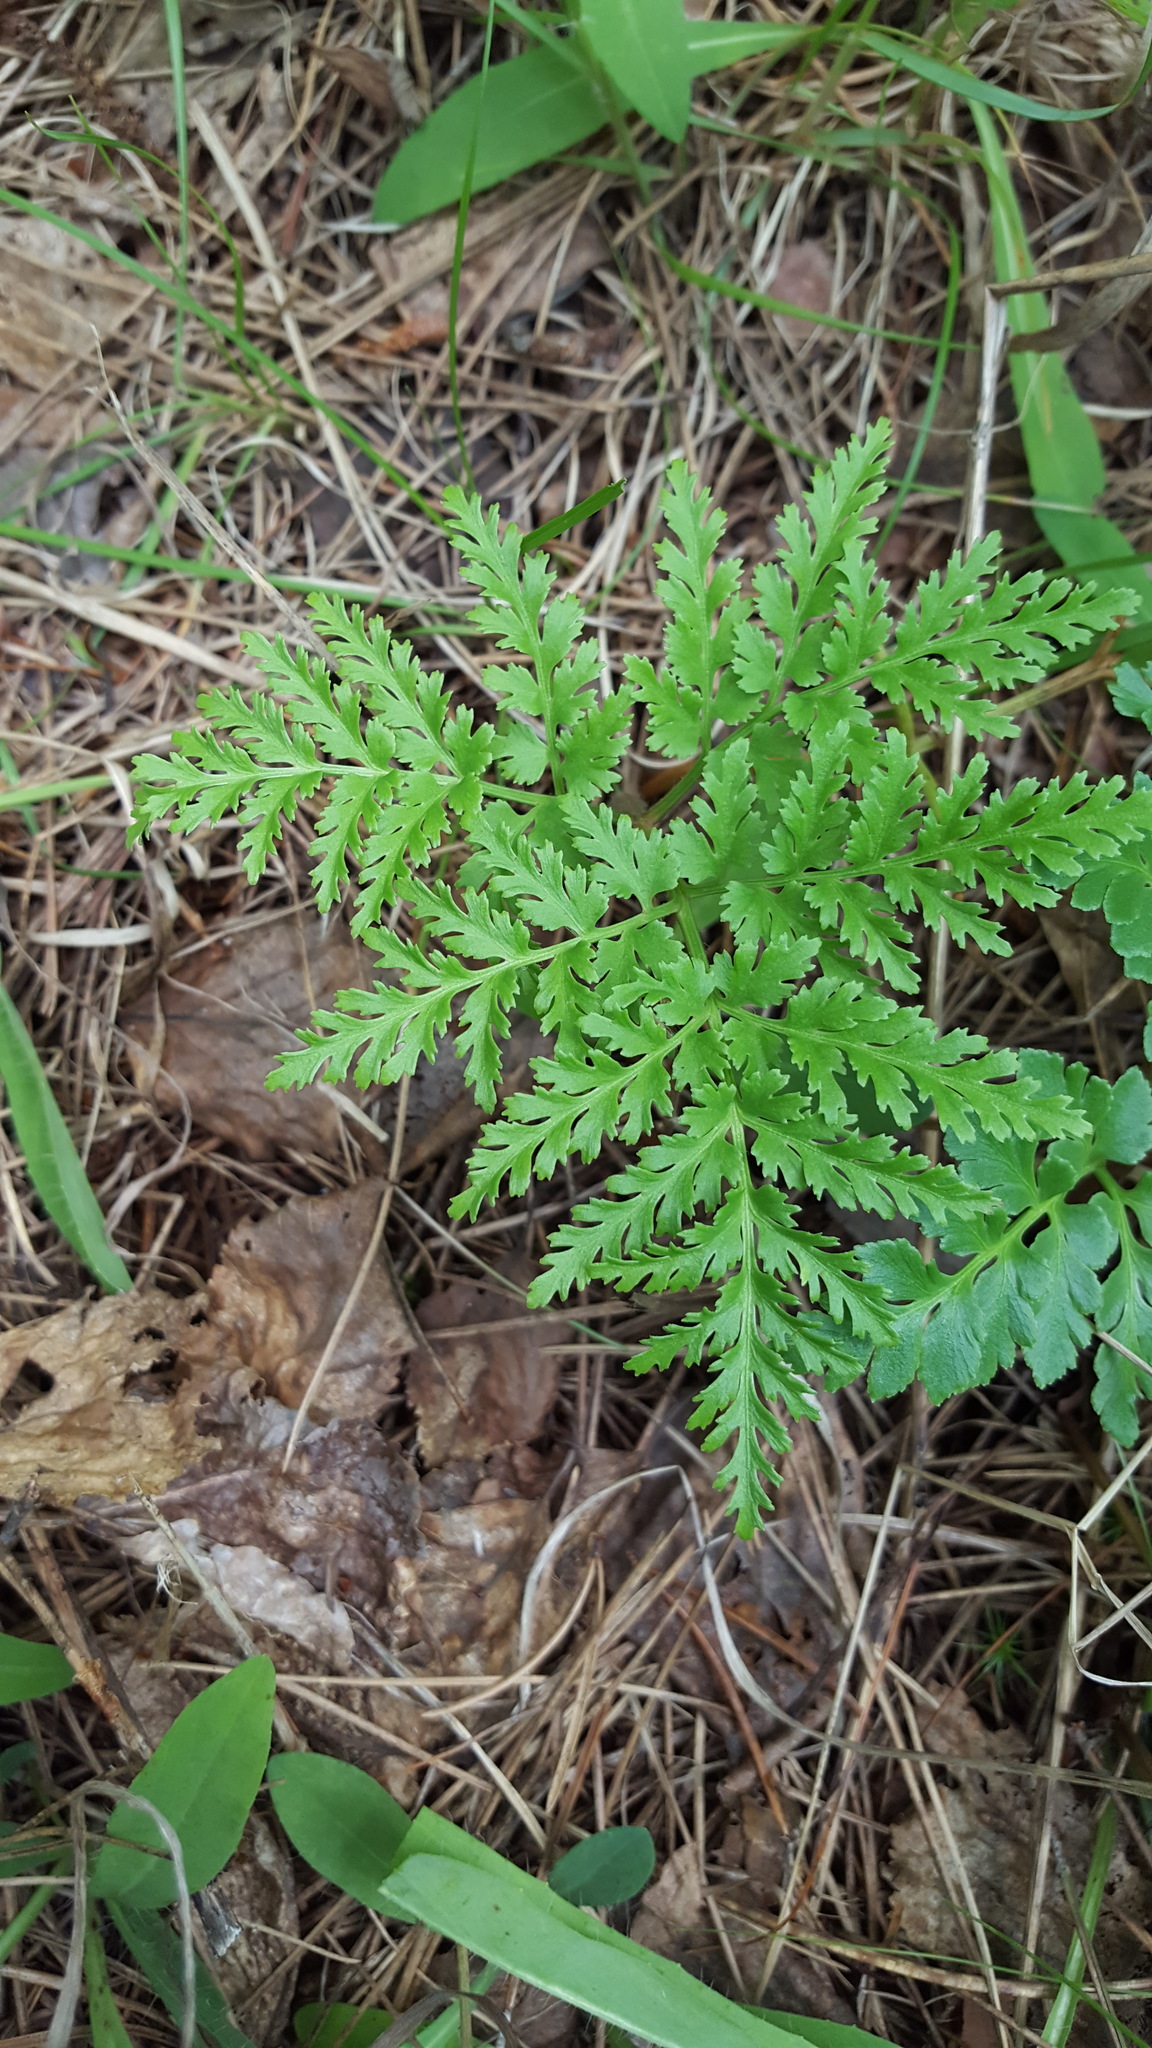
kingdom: Plantae
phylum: Tracheophyta
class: Polypodiopsida
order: Ophioglossales
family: Ophioglossaceae
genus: Sceptridium
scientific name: Sceptridium dissectum
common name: Cut-leaved grapefern
